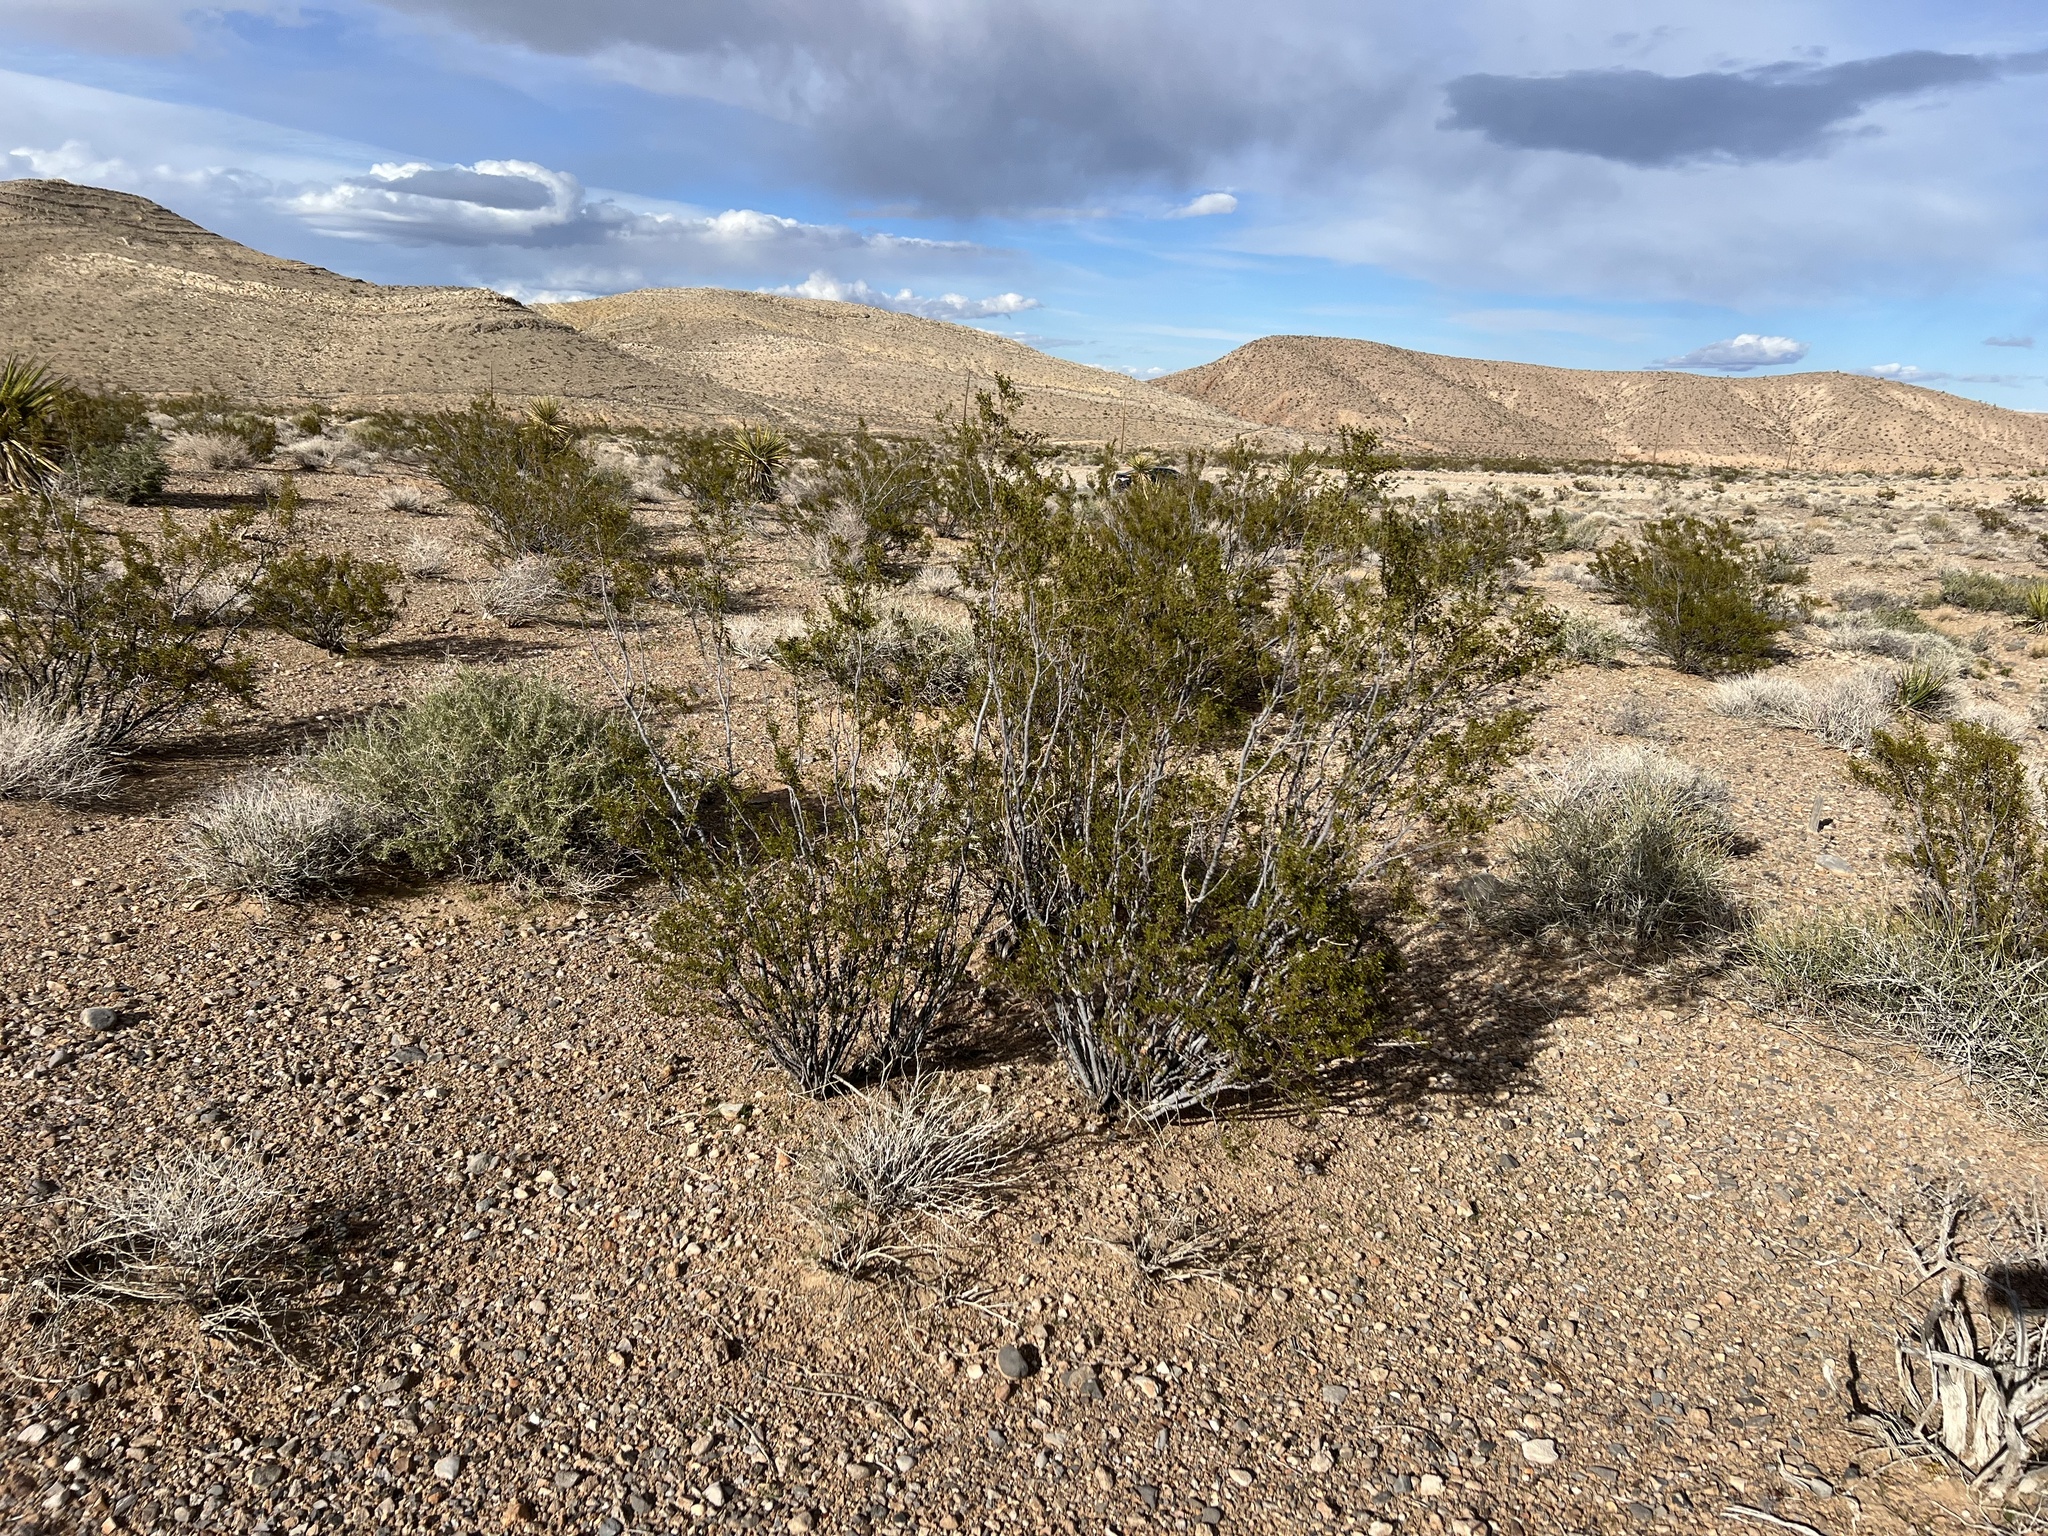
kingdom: Plantae
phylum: Tracheophyta
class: Magnoliopsida
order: Zygophyllales
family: Zygophyllaceae
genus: Larrea
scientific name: Larrea tridentata
